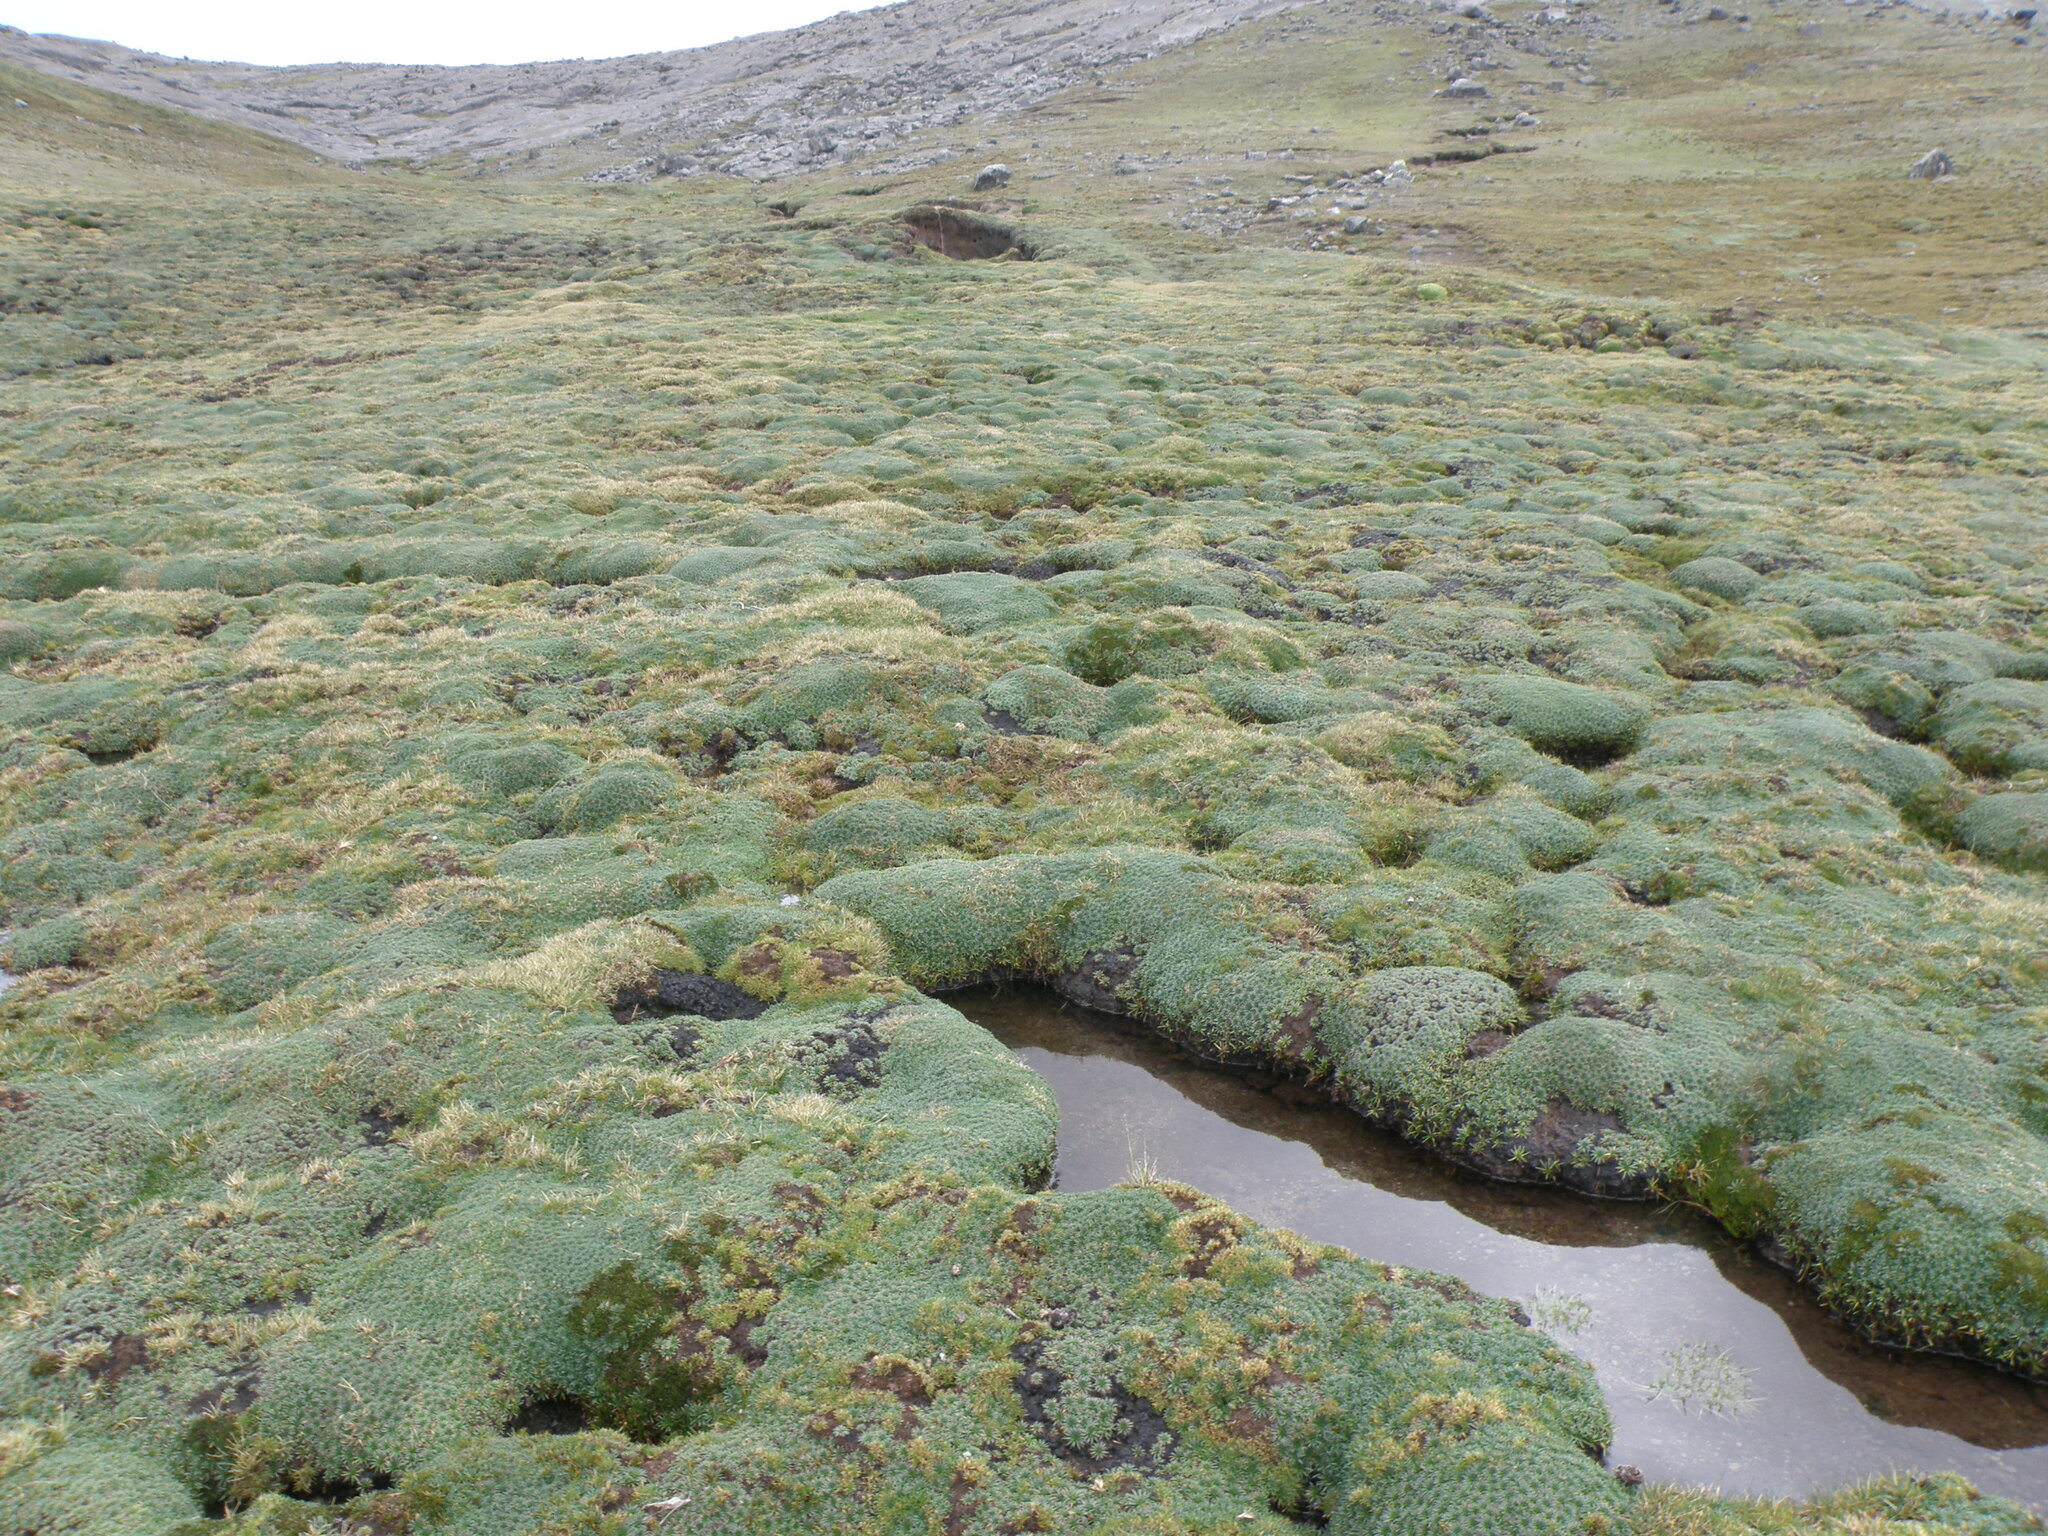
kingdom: Plantae
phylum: Tracheophyta
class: Magnoliopsida
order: Lamiales
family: Plantaginaceae
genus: Plantago
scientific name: Plantago rigida
